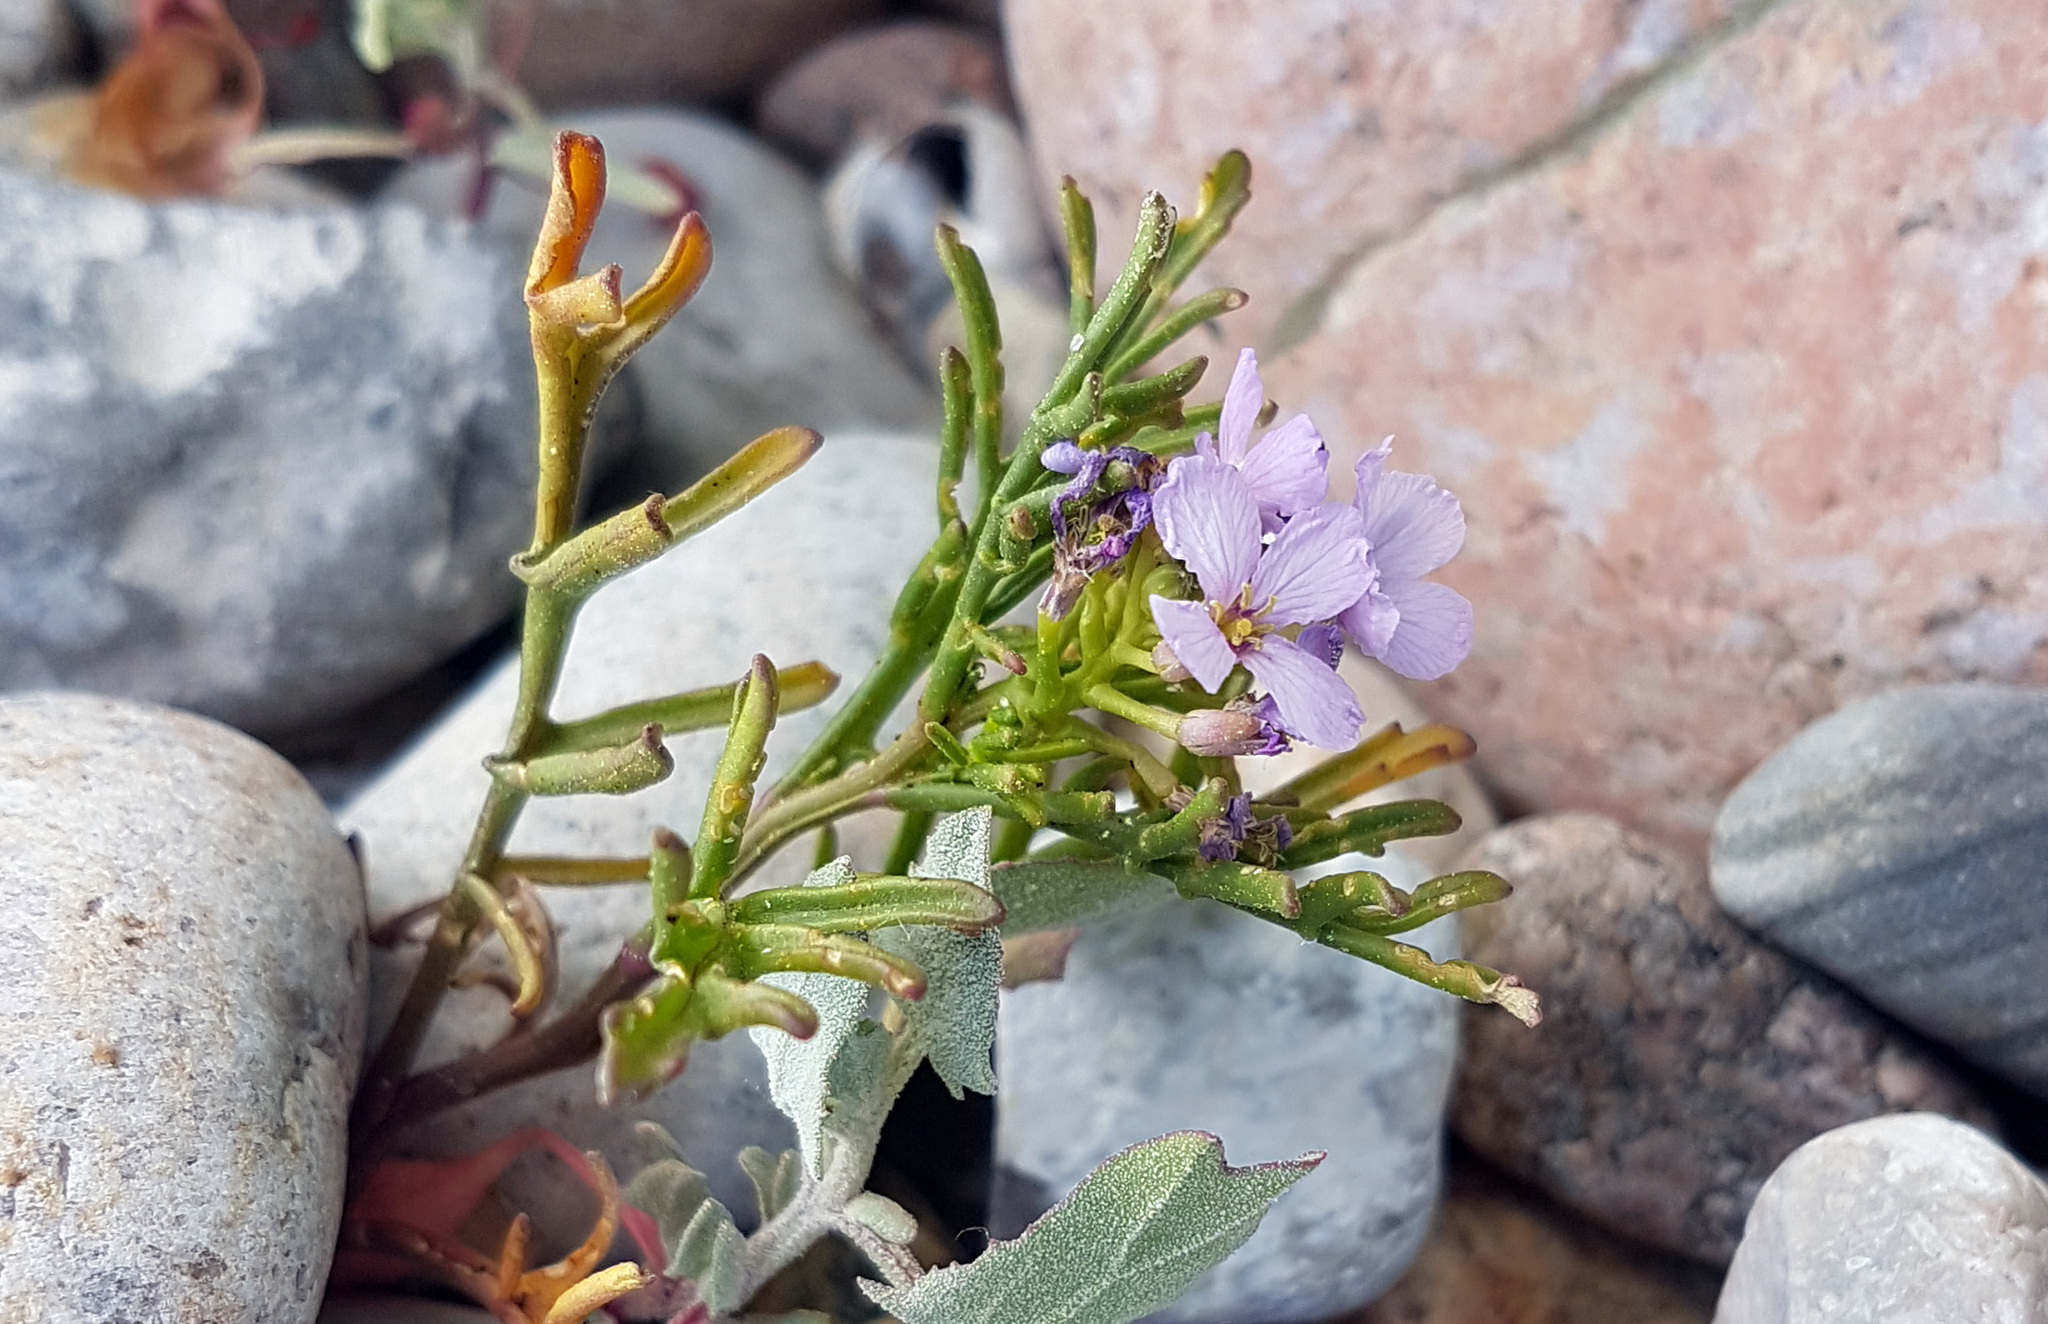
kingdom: Plantae
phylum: Tracheophyta
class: Magnoliopsida
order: Brassicales
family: Brassicaceae
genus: Cakile
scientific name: Cakile maritima
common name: Sea rocket
